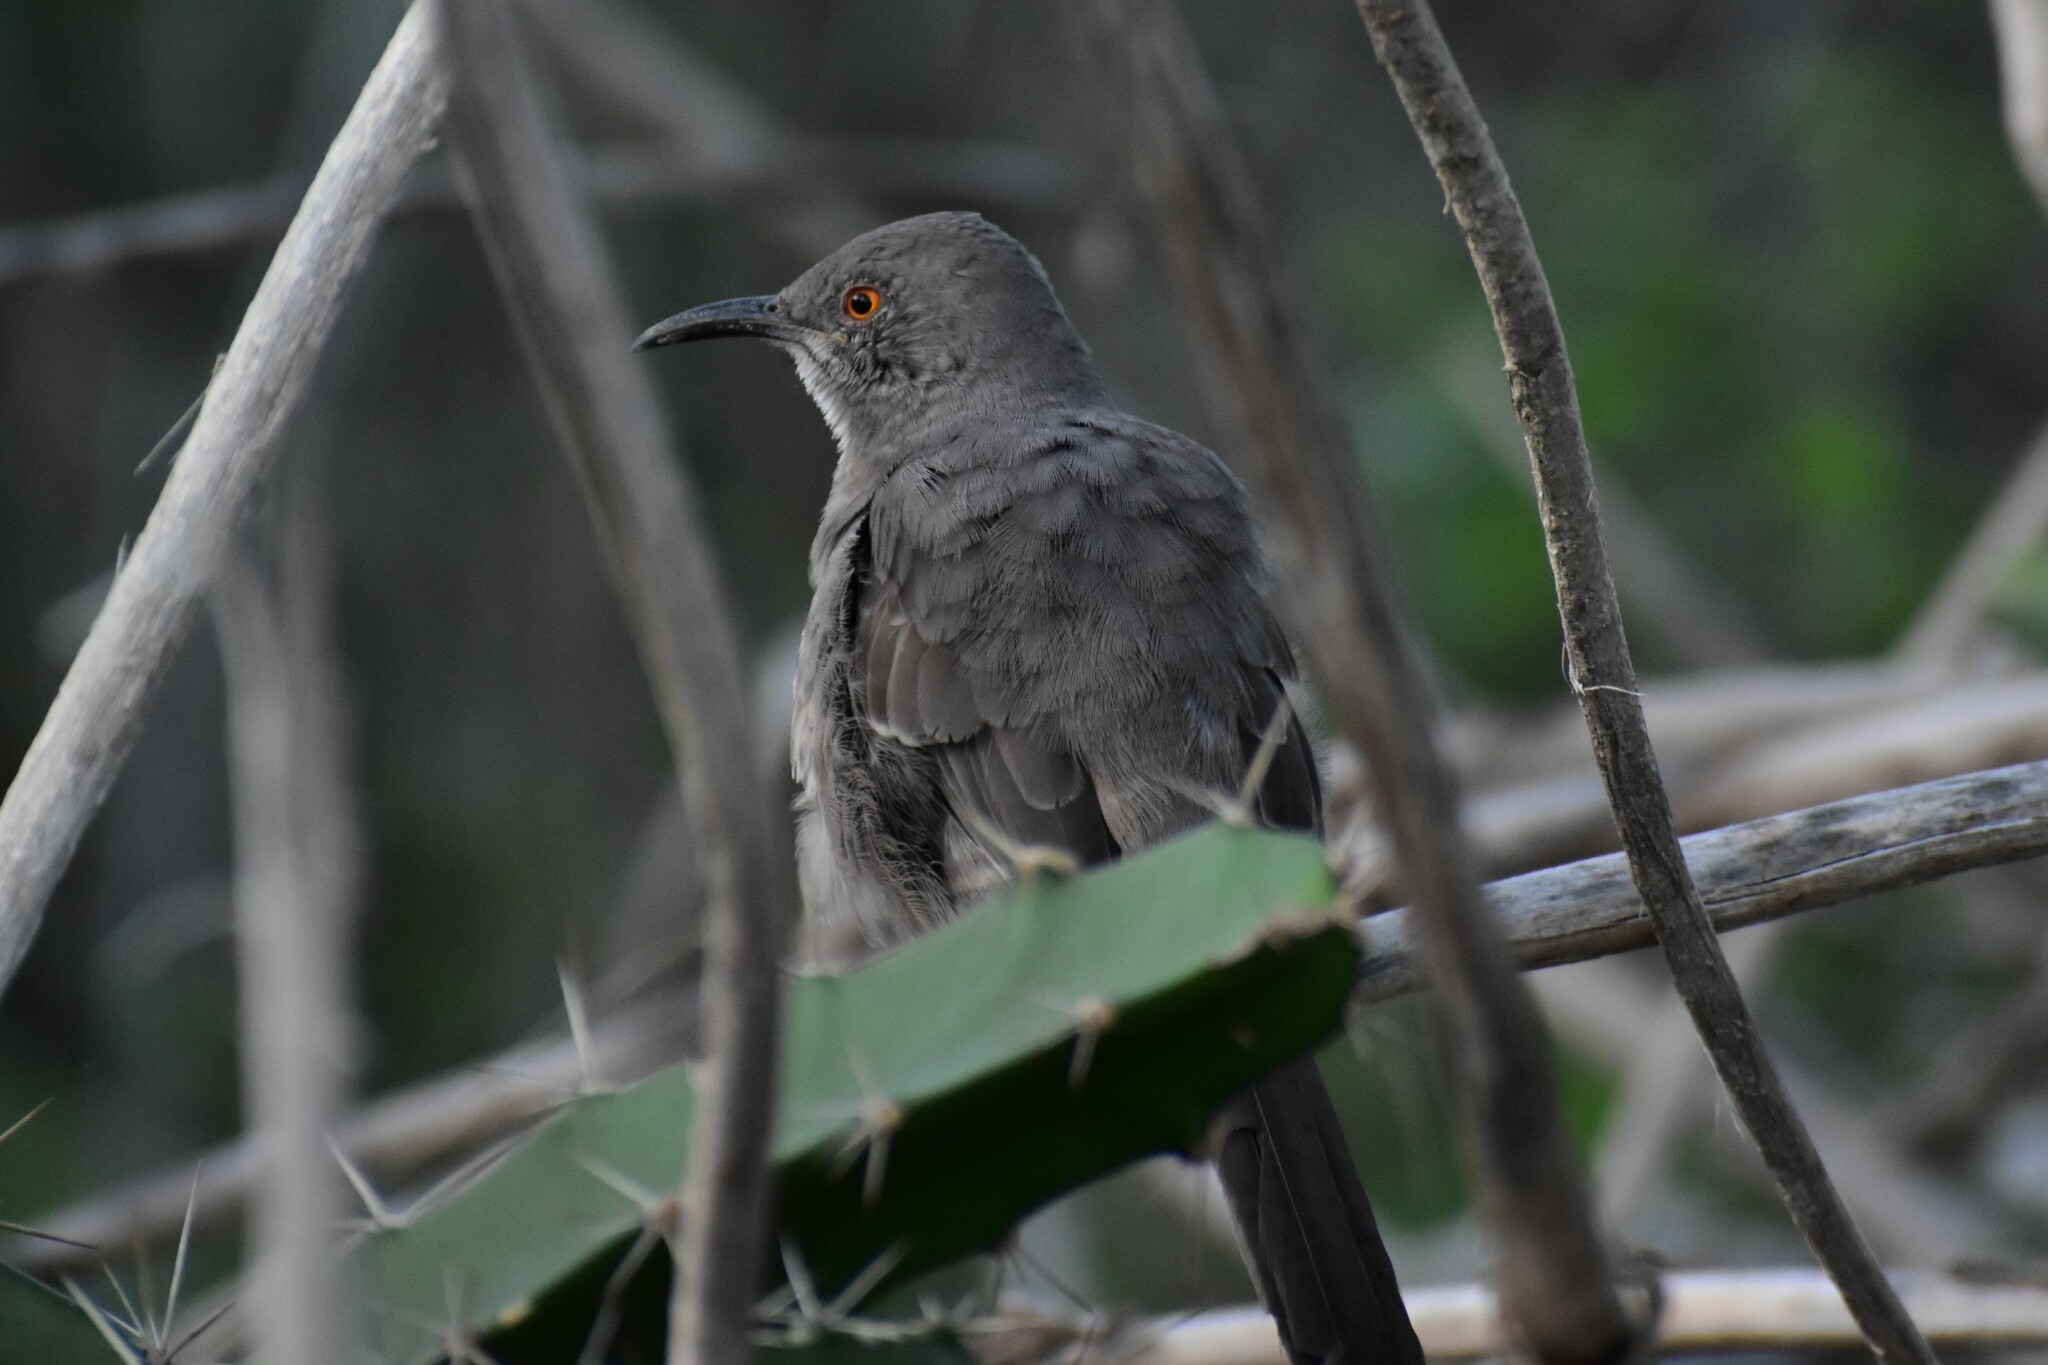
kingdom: Animalia
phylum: Chordata
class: Aves
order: Passeriformes
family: Mimidae
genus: Toxostoma
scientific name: Toxostoma curvirostre
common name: Curve-billed thrasher
